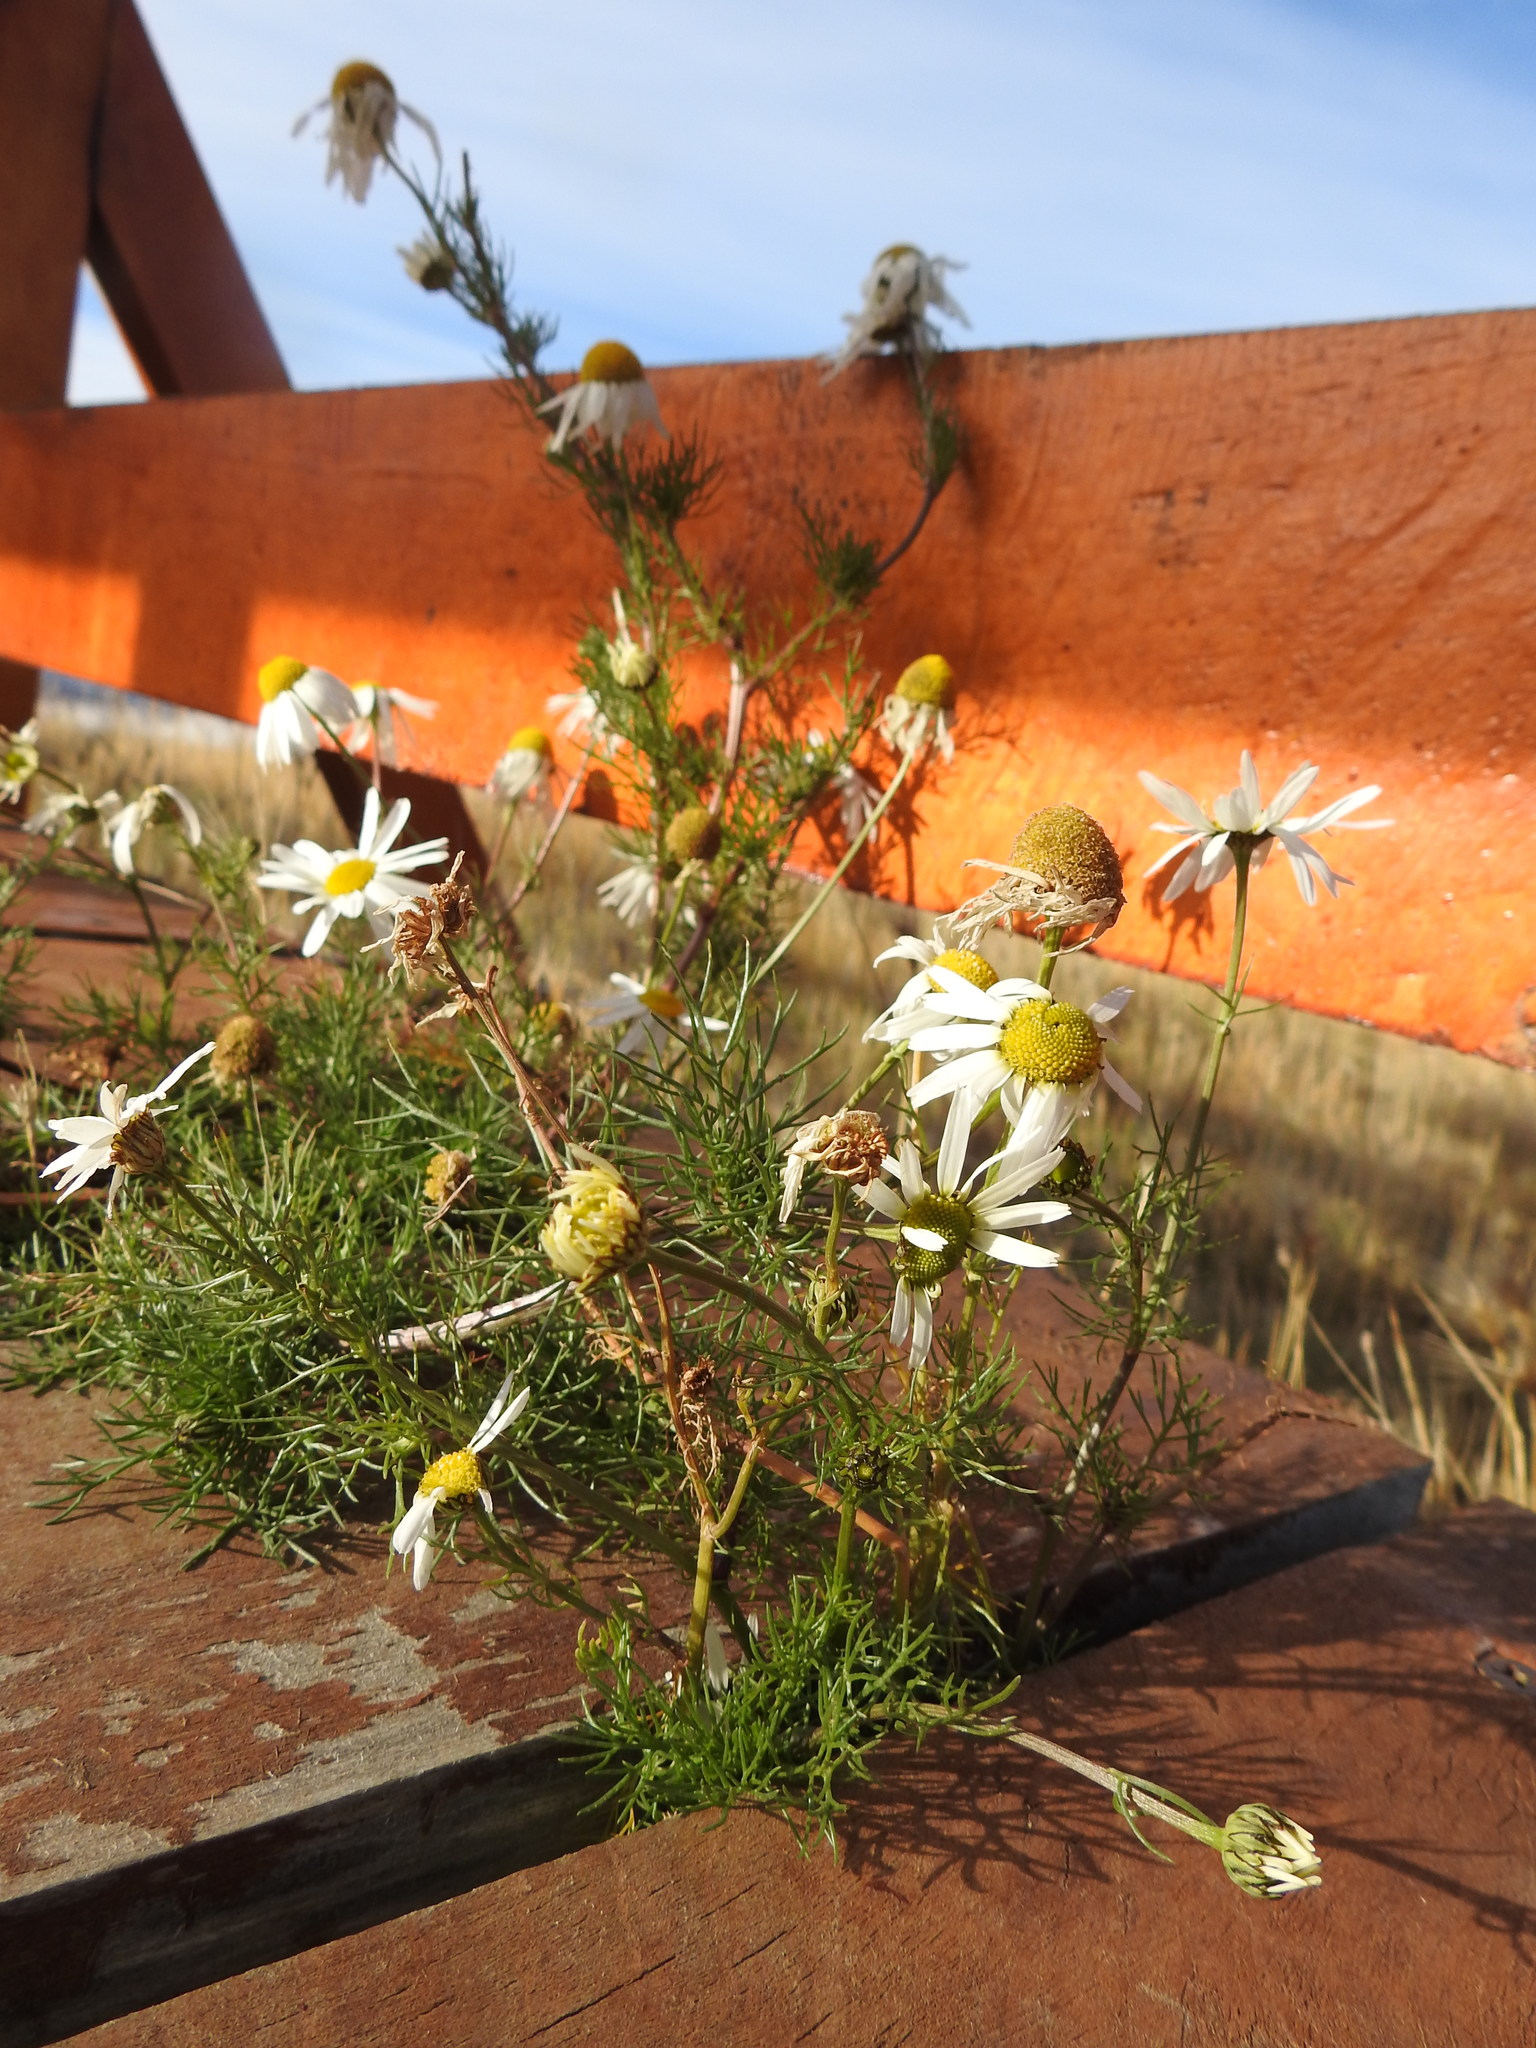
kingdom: Plantae
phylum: Tracheophyta
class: Magnoliopsida
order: Asterales
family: Asteraceae
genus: Tripleurospermum
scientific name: Tripleurospermum inodorum
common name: Scentless mayweed
